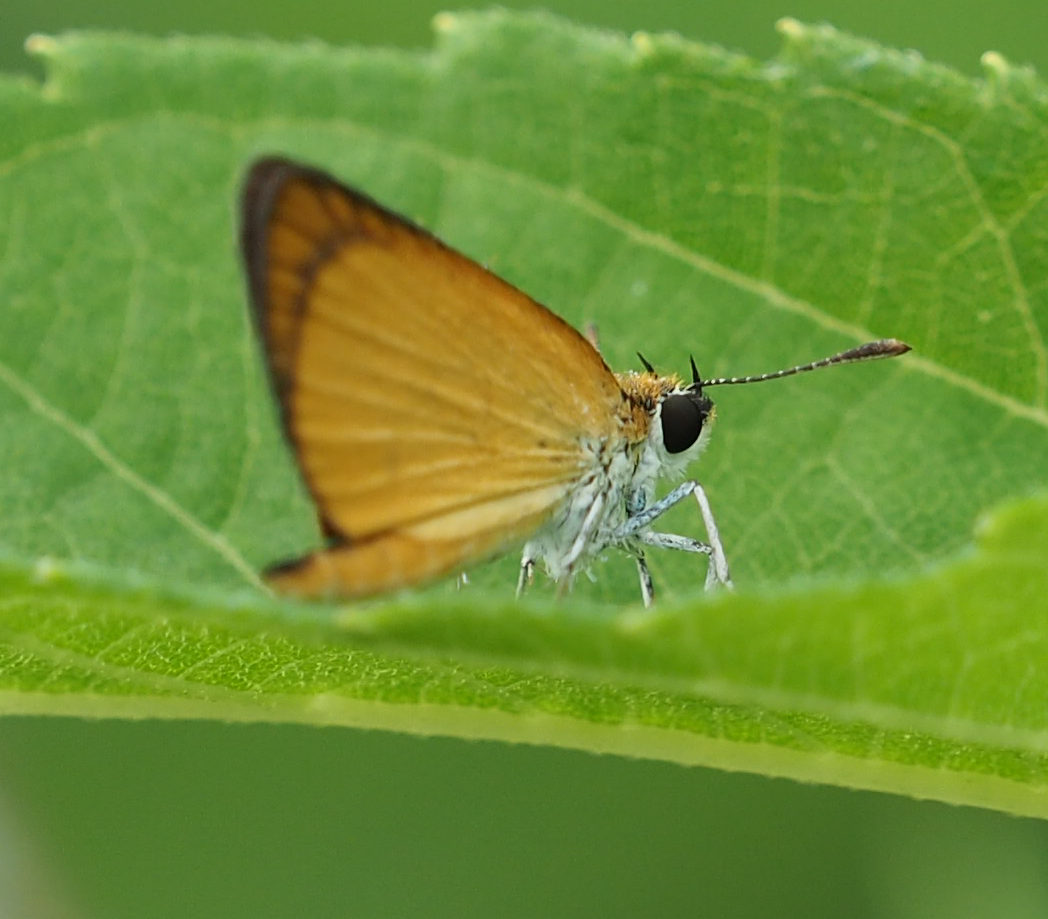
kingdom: Animalia
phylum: Arthropoda
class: Insecta
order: Lepidoptera
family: Hesperiidae
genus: Ancyloxypha
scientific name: Ancyloxypha numitor
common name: Least skipper
